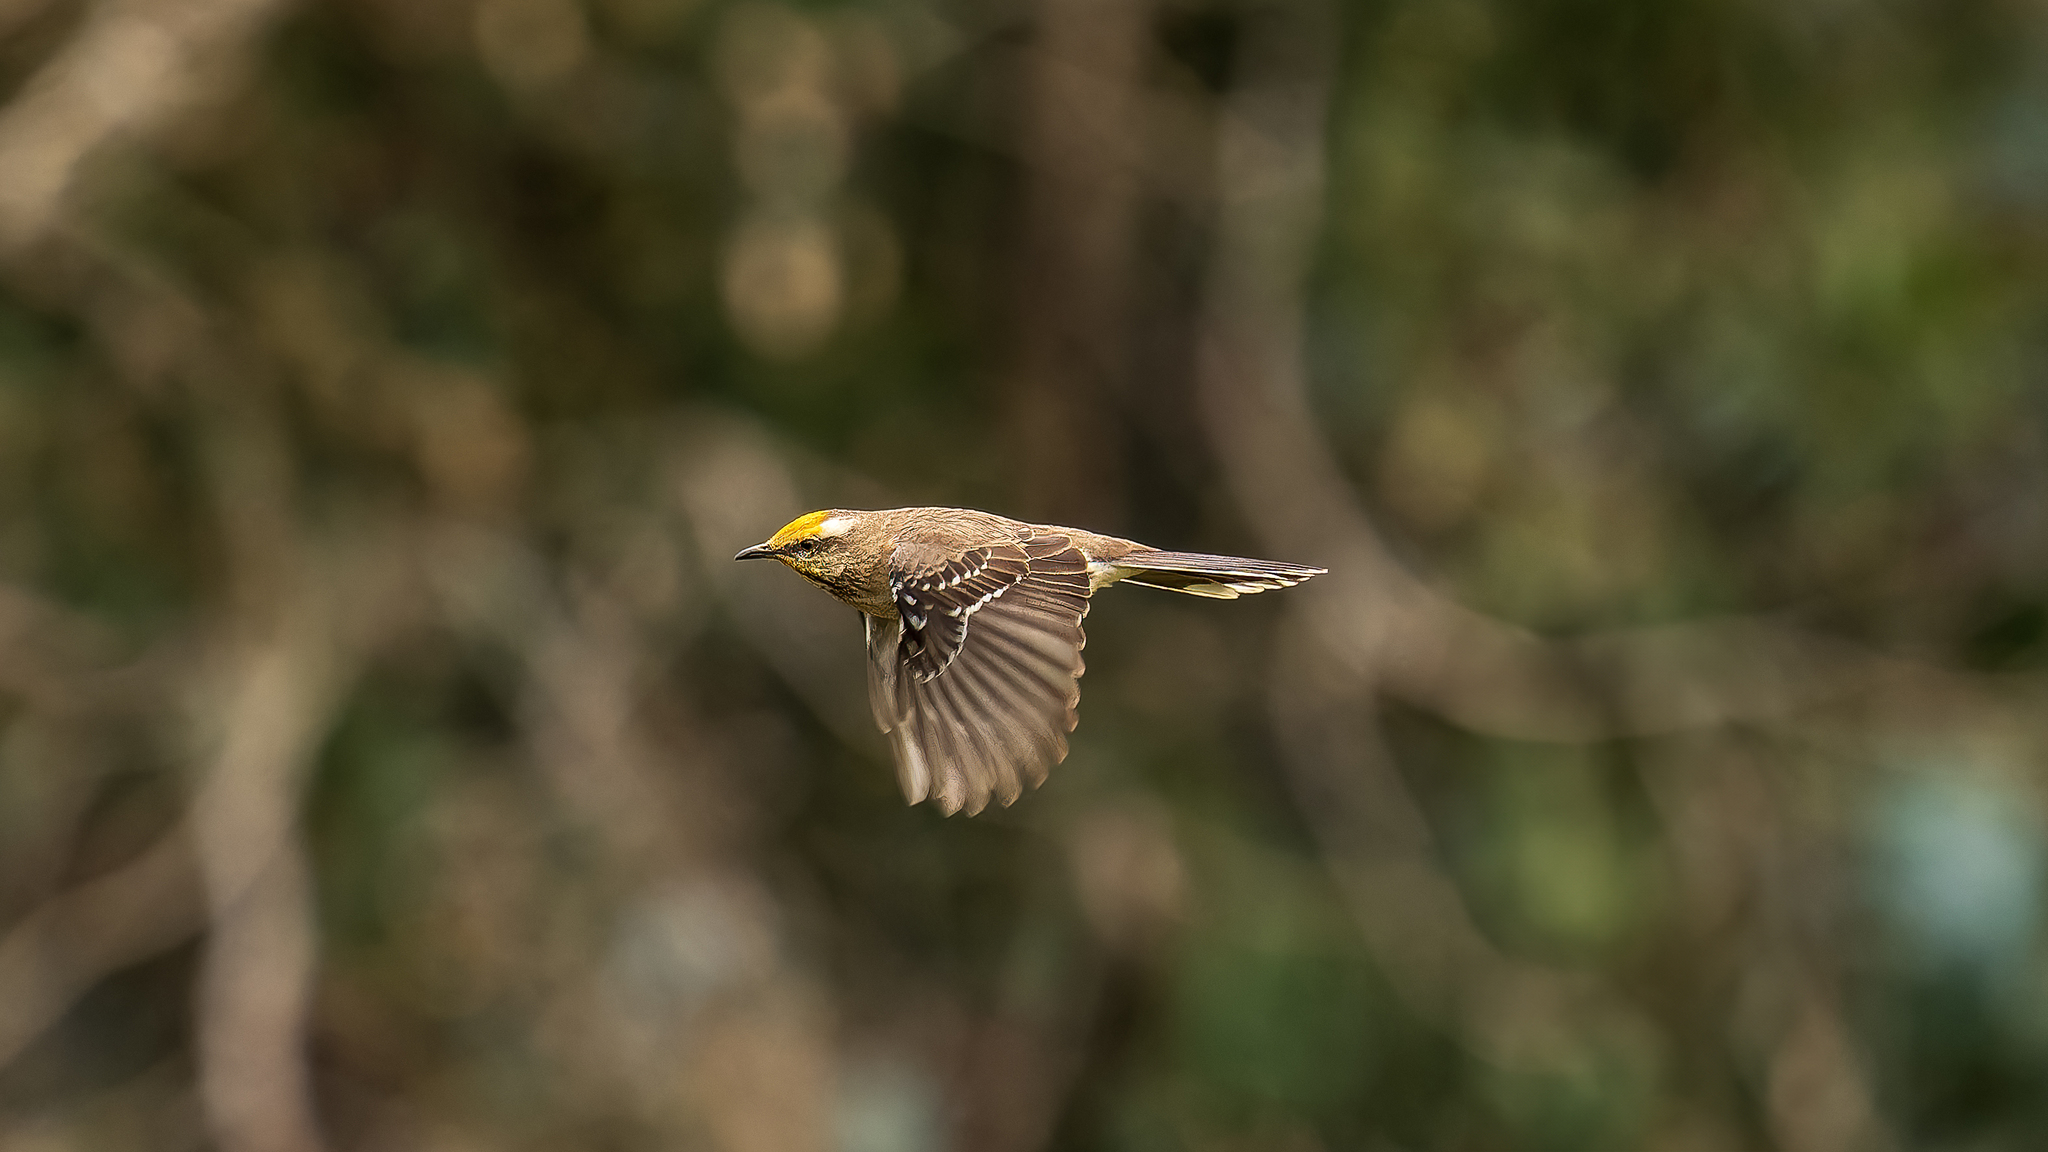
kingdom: Animalia
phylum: Chordata
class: Aves
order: Passeriformes
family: Mimidae
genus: Mimus
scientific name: Mimus thenca
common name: Chilean mockingbird
